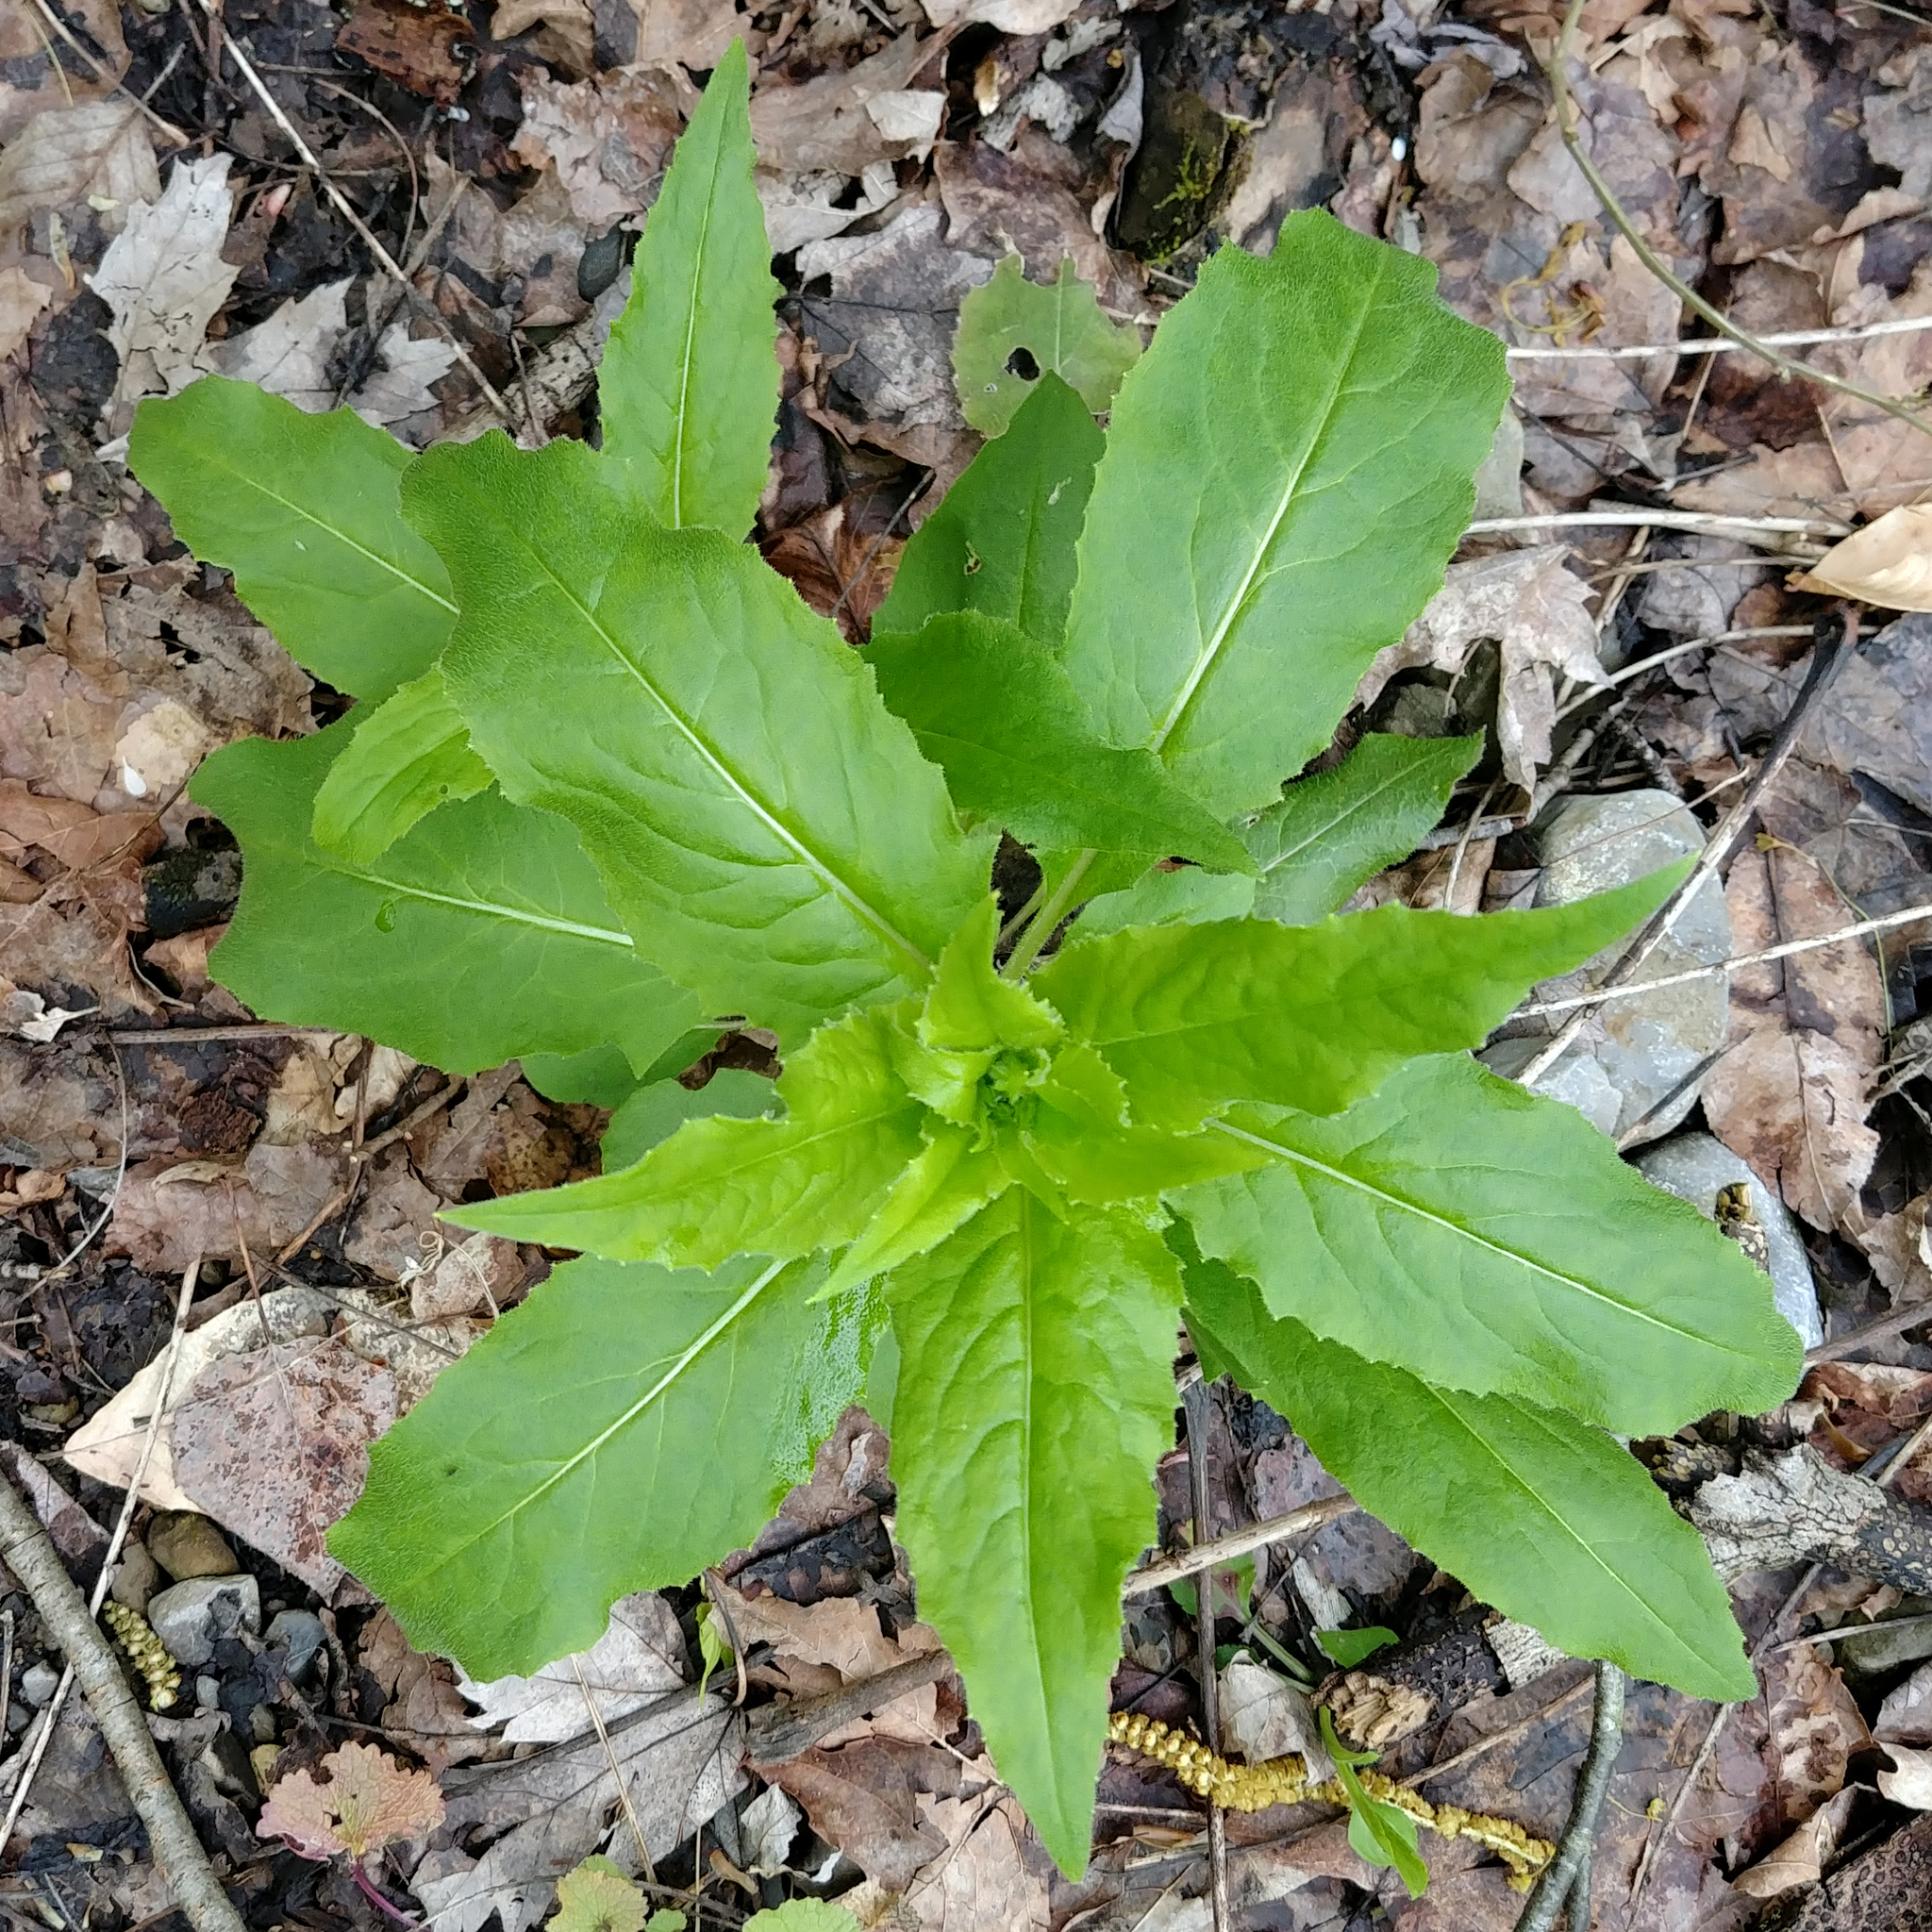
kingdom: Plantae
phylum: Tracheophyta
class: Magnoliopsida
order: Brassicales
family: Brassicaceae
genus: Hesperis
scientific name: Hesperis matronalis
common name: Dame's-violet
